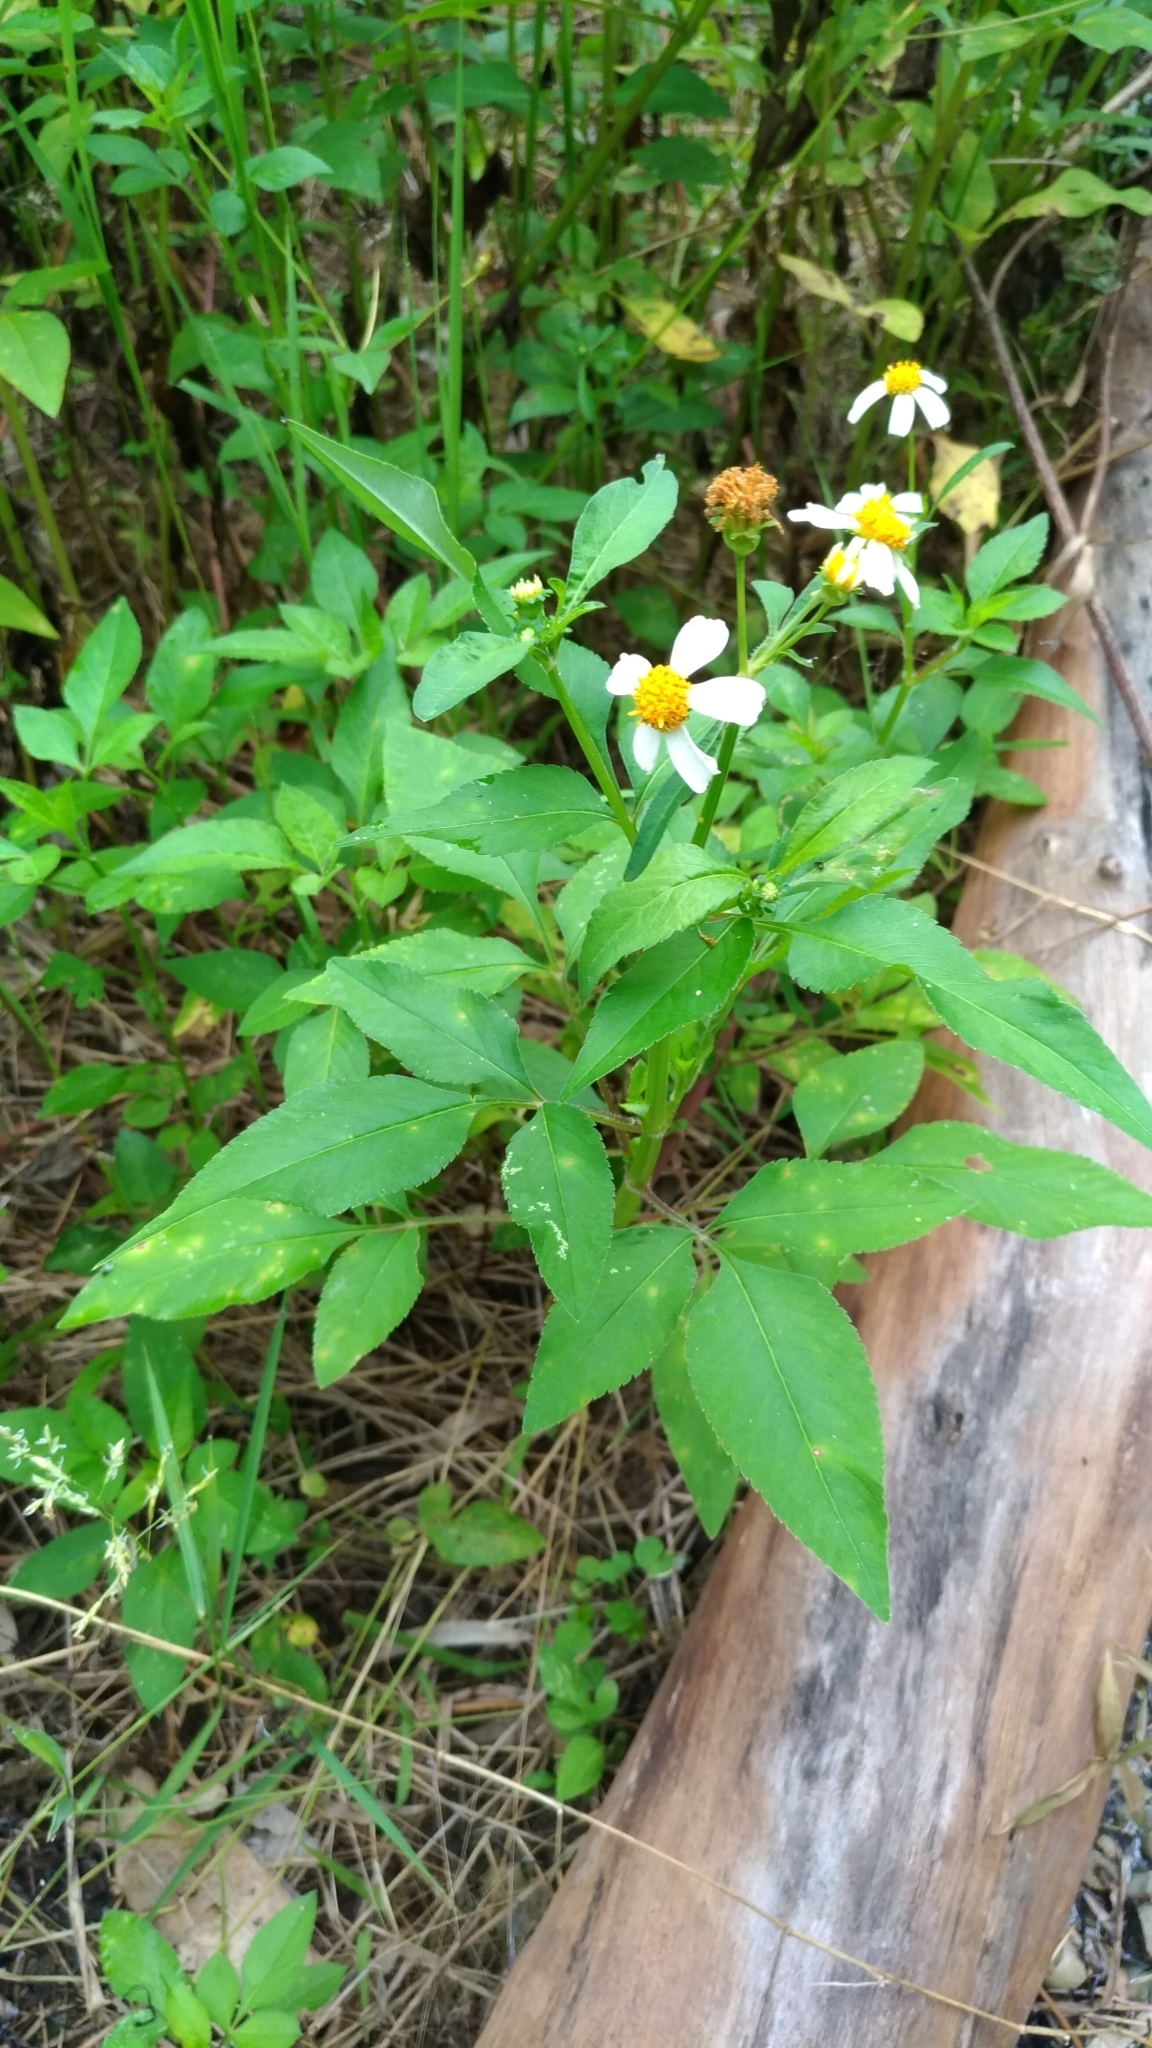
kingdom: Plantae
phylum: Tracheophyta
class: Magnoliopsida
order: Asterales
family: Asteraceae
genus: Bidens
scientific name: Bidens alba
